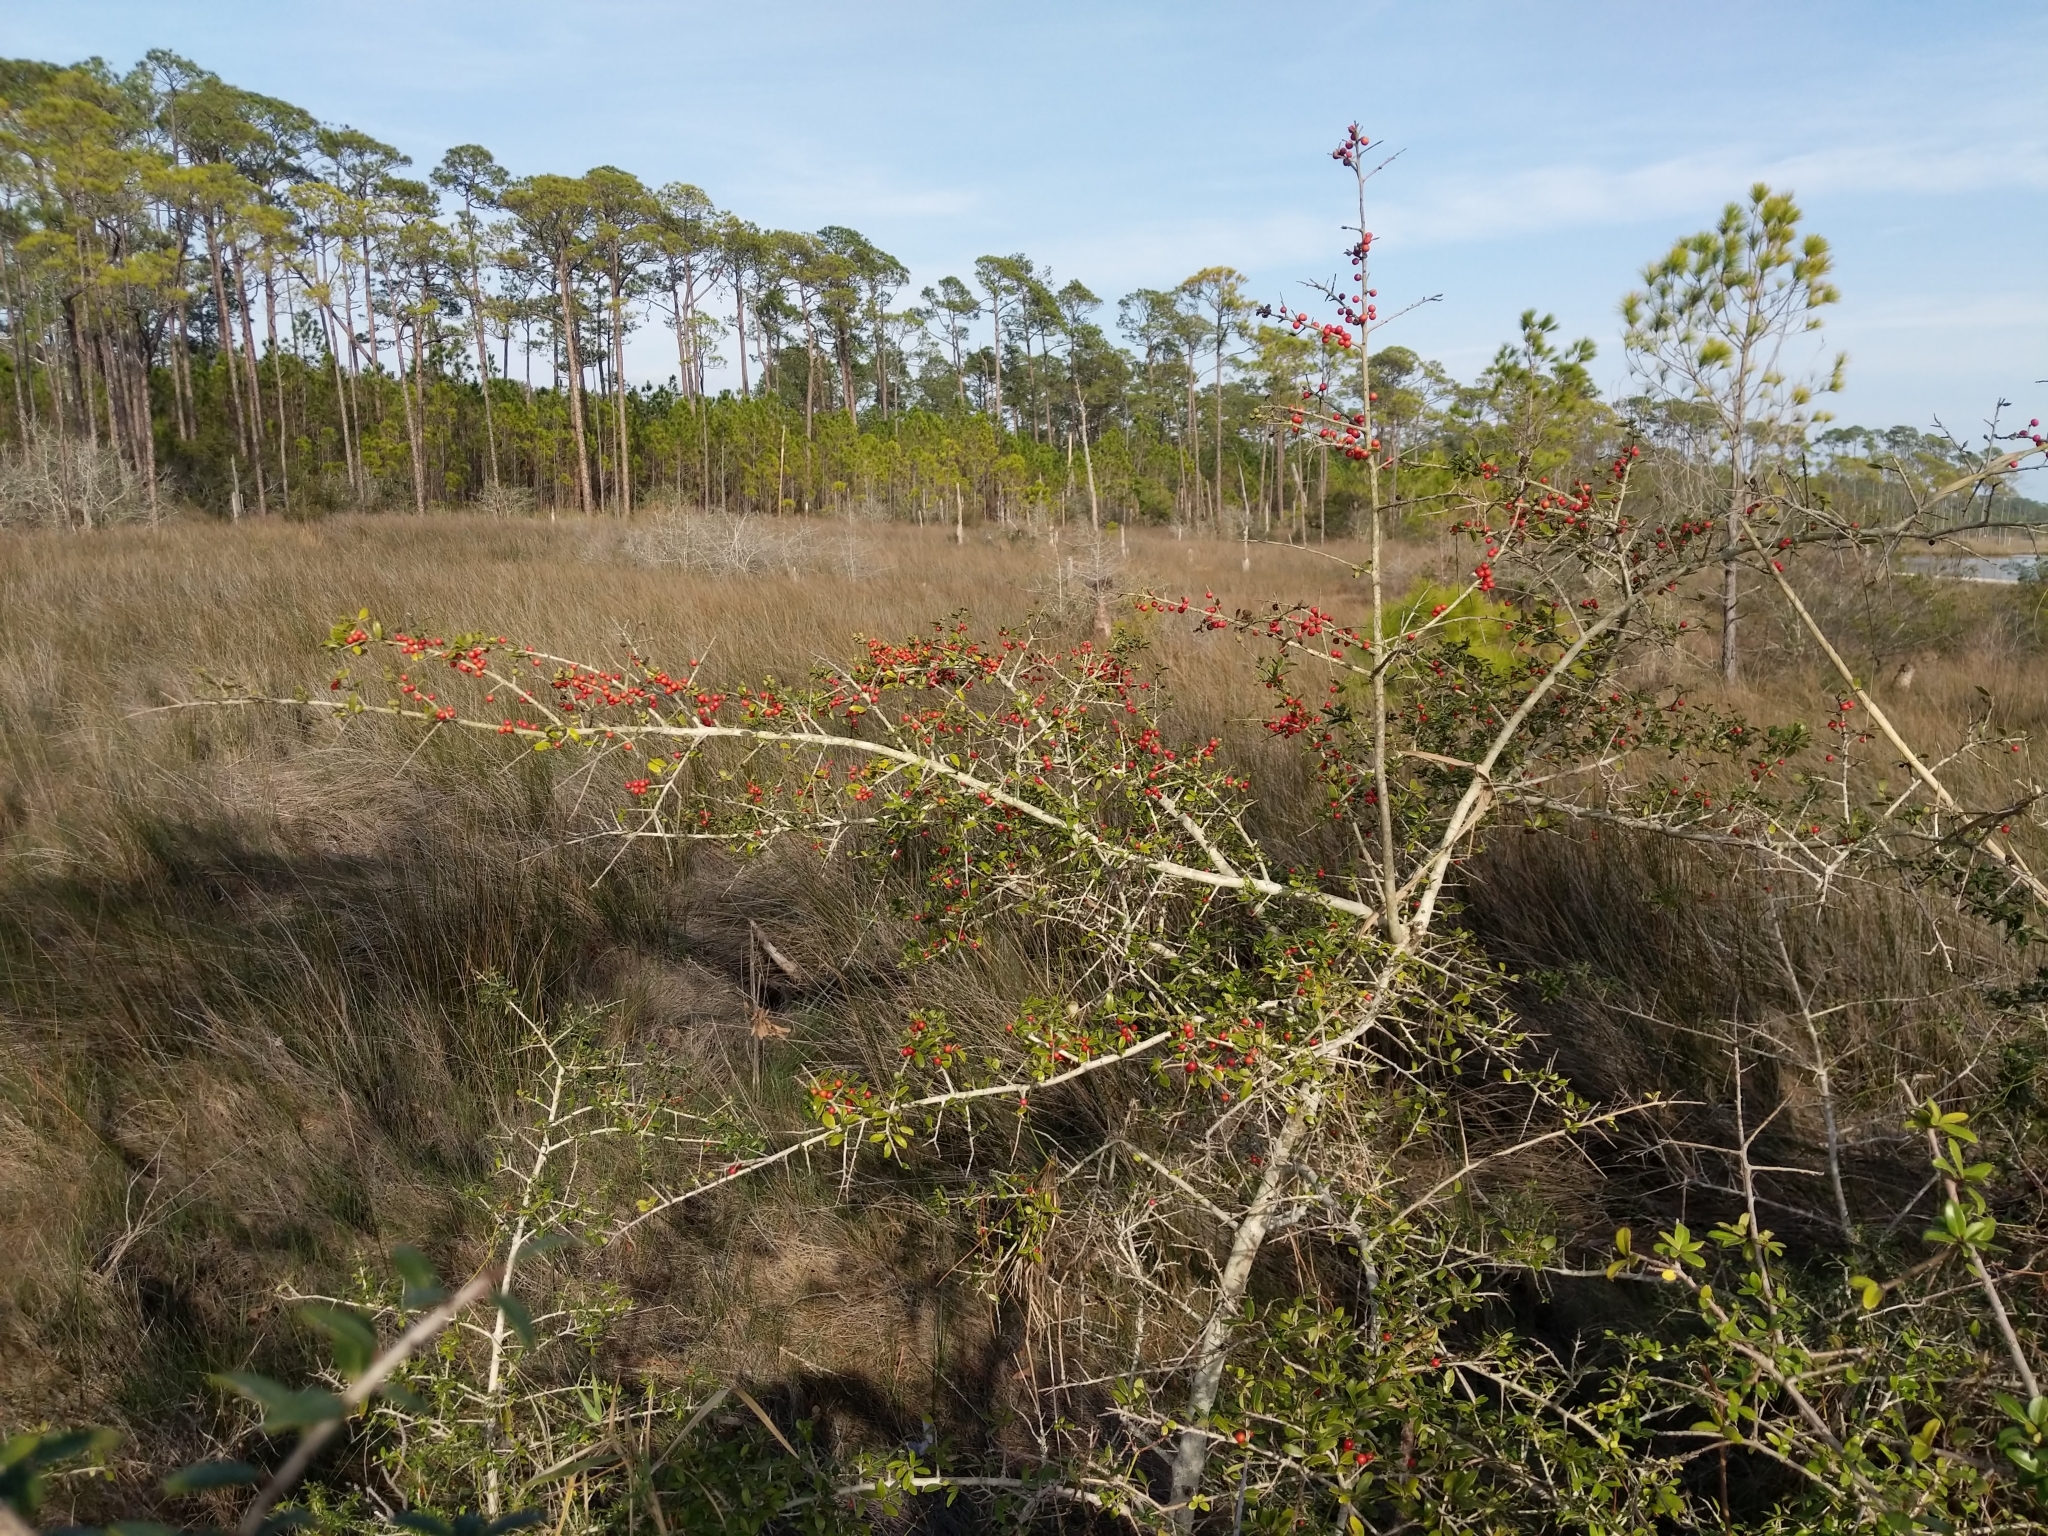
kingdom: Plantae
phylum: Tracheophyta
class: Magnoliopsida
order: Aquifoliales
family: Aquifoliaceae
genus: Ilex
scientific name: Ilex vomitoria
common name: Yaupon holly
